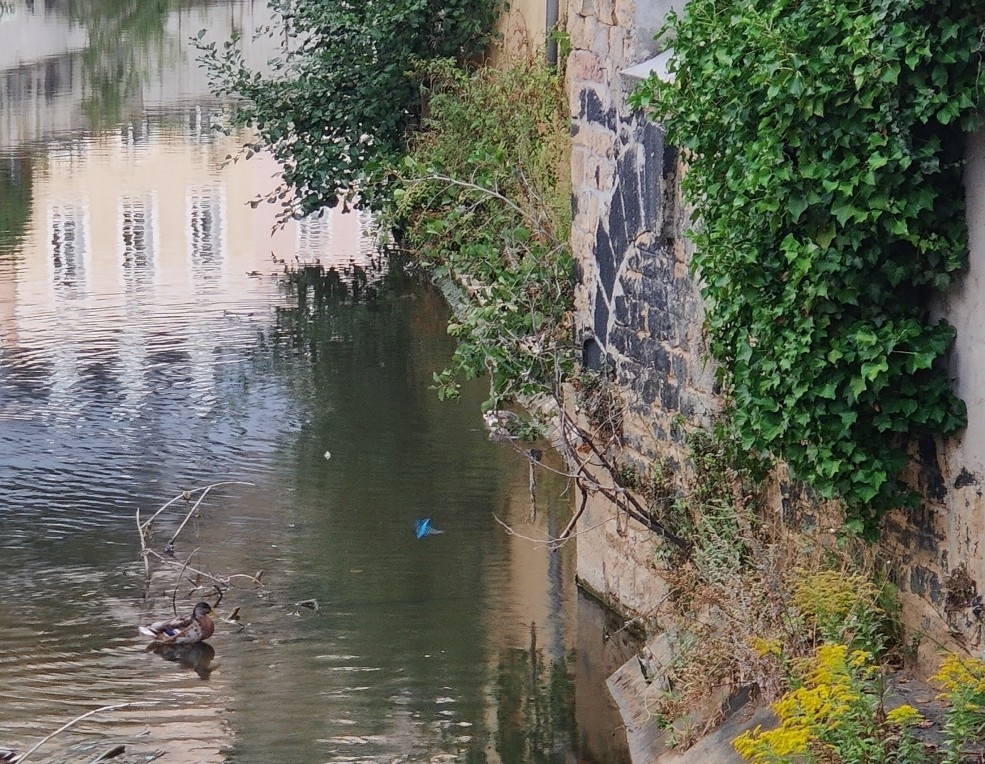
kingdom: Animalia
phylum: Chordata
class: Aves
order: Coraciiformes
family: Alcedinidae
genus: Alcedo
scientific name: Alcedo atthis
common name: Common kingfisher
